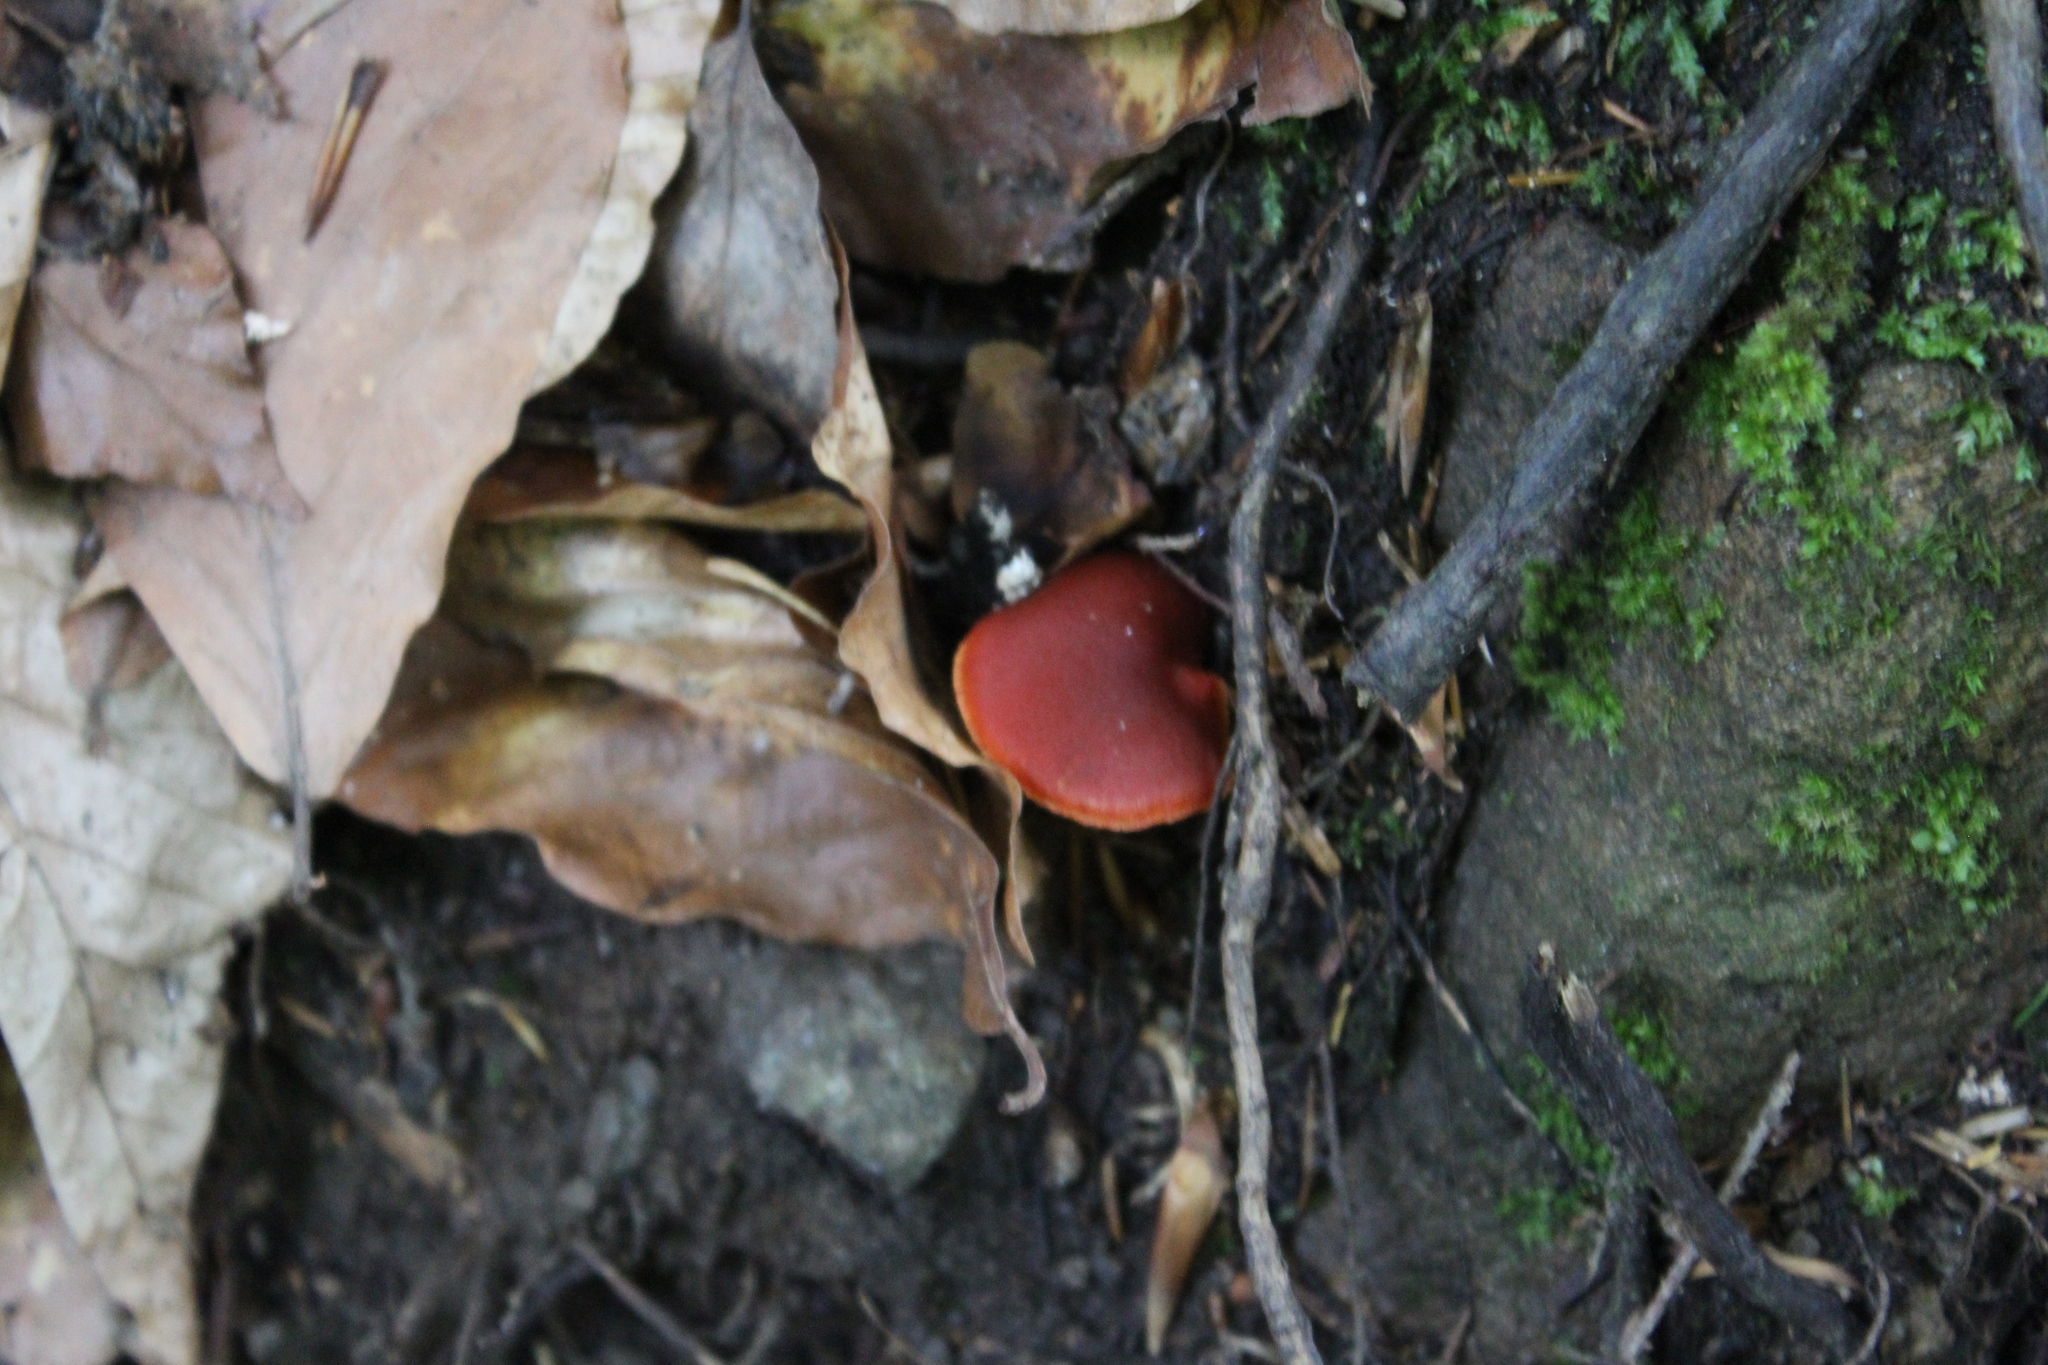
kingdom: Fungi
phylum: Basidiomycota
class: Agaricomycetes
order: Agaricales
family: Cortinariaceae
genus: Cortinarius
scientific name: Cortinarius cinnabarinus
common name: Cinnabar webcap
